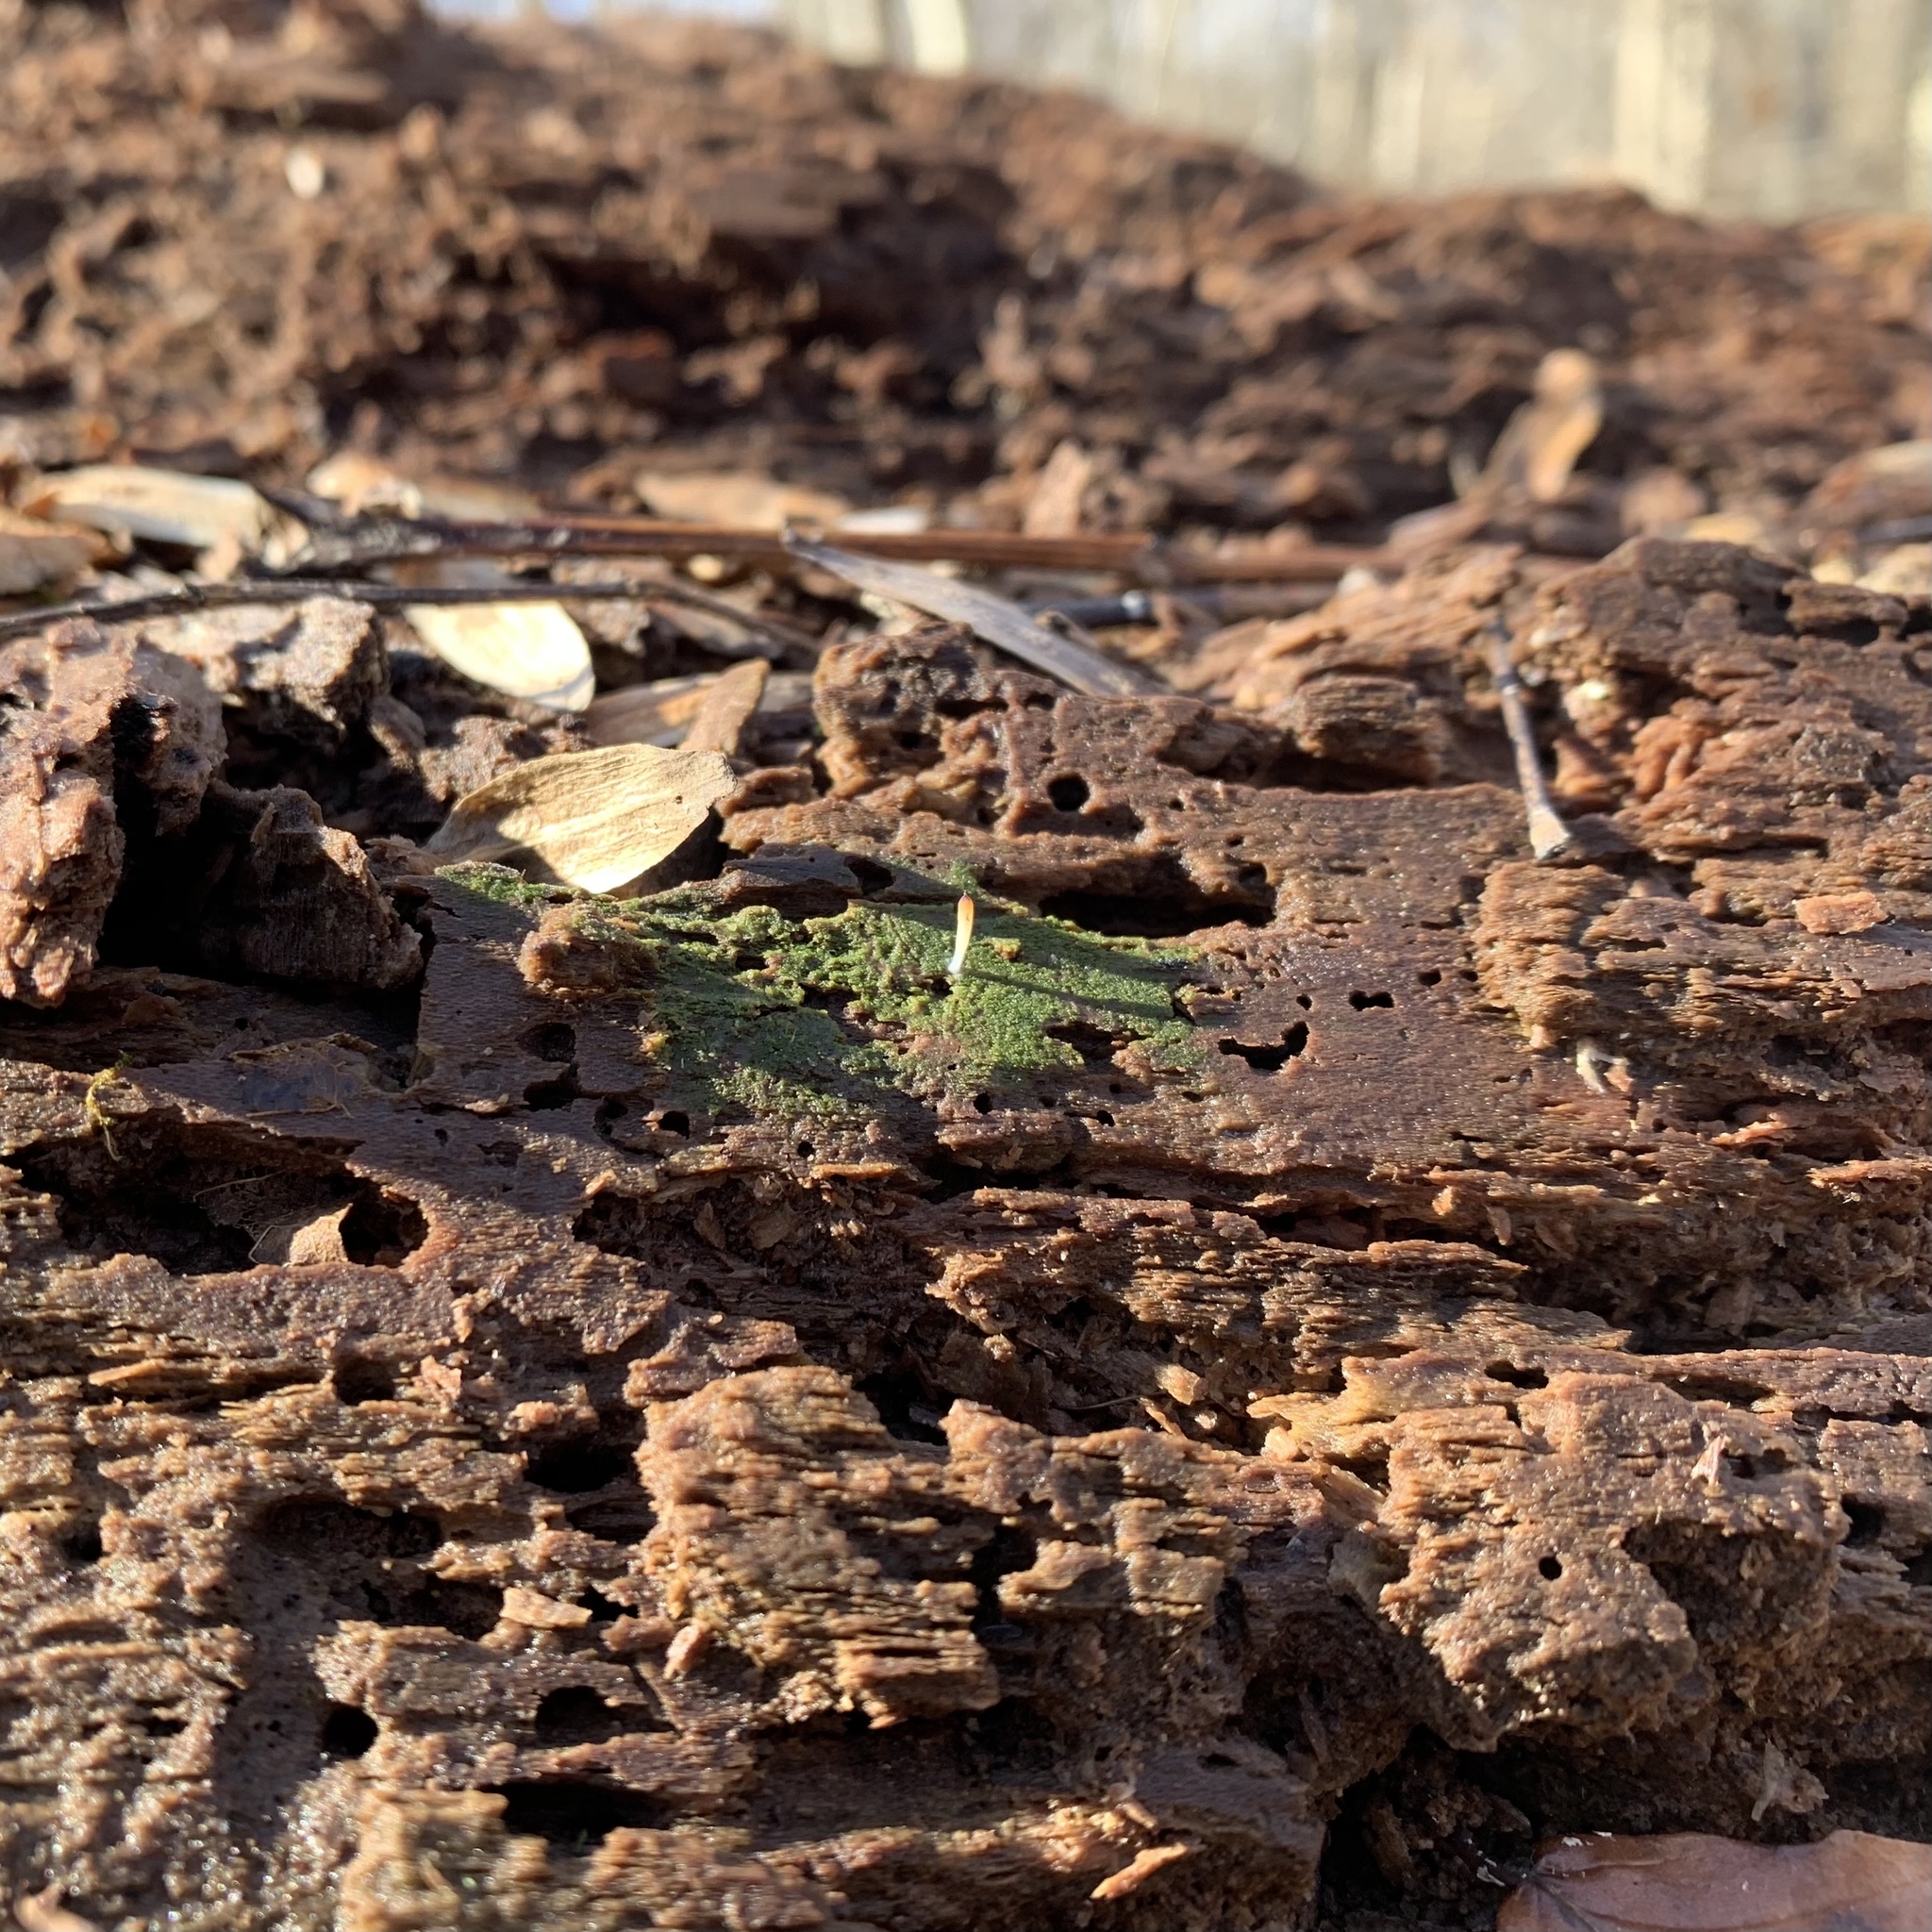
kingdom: Fungi
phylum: Basidiomycota
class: Agaricomycetes
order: Cantharellales
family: Hydnaceae
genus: Multiclavula
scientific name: Multiclavula mucida
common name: White green-algae coral
